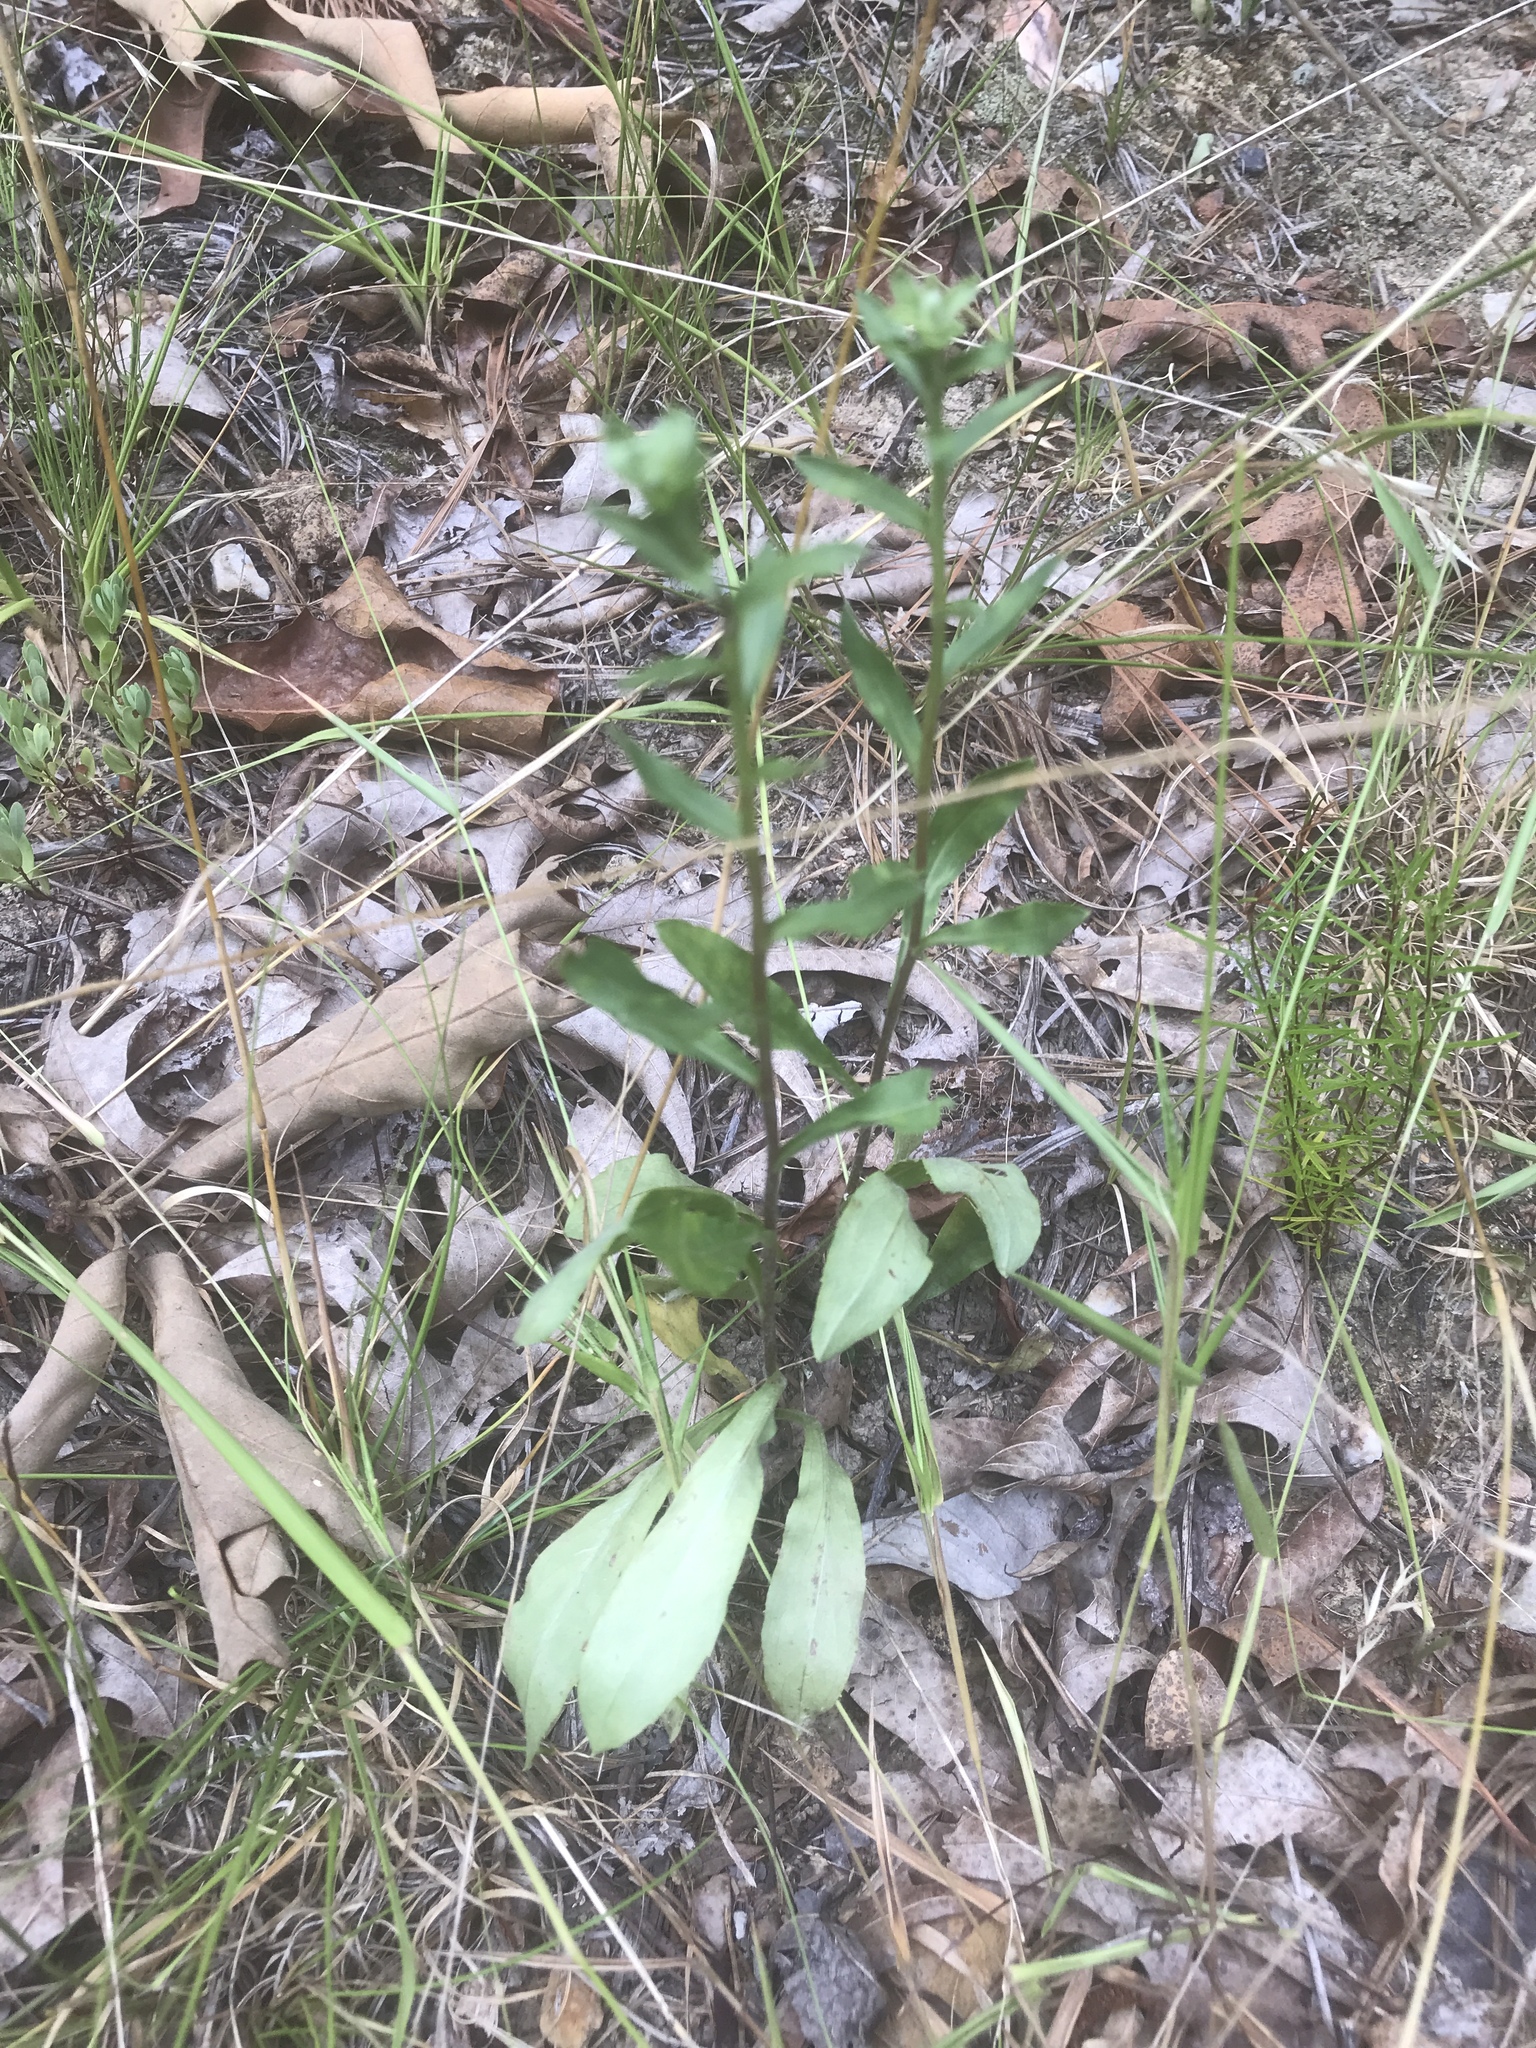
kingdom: Plantae
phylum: Tracheophyta
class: Magnoliopsida
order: Asterales
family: Asteraceae
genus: Chrysopsis
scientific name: Chrysopsis mariana
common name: Maryland golden-aster
